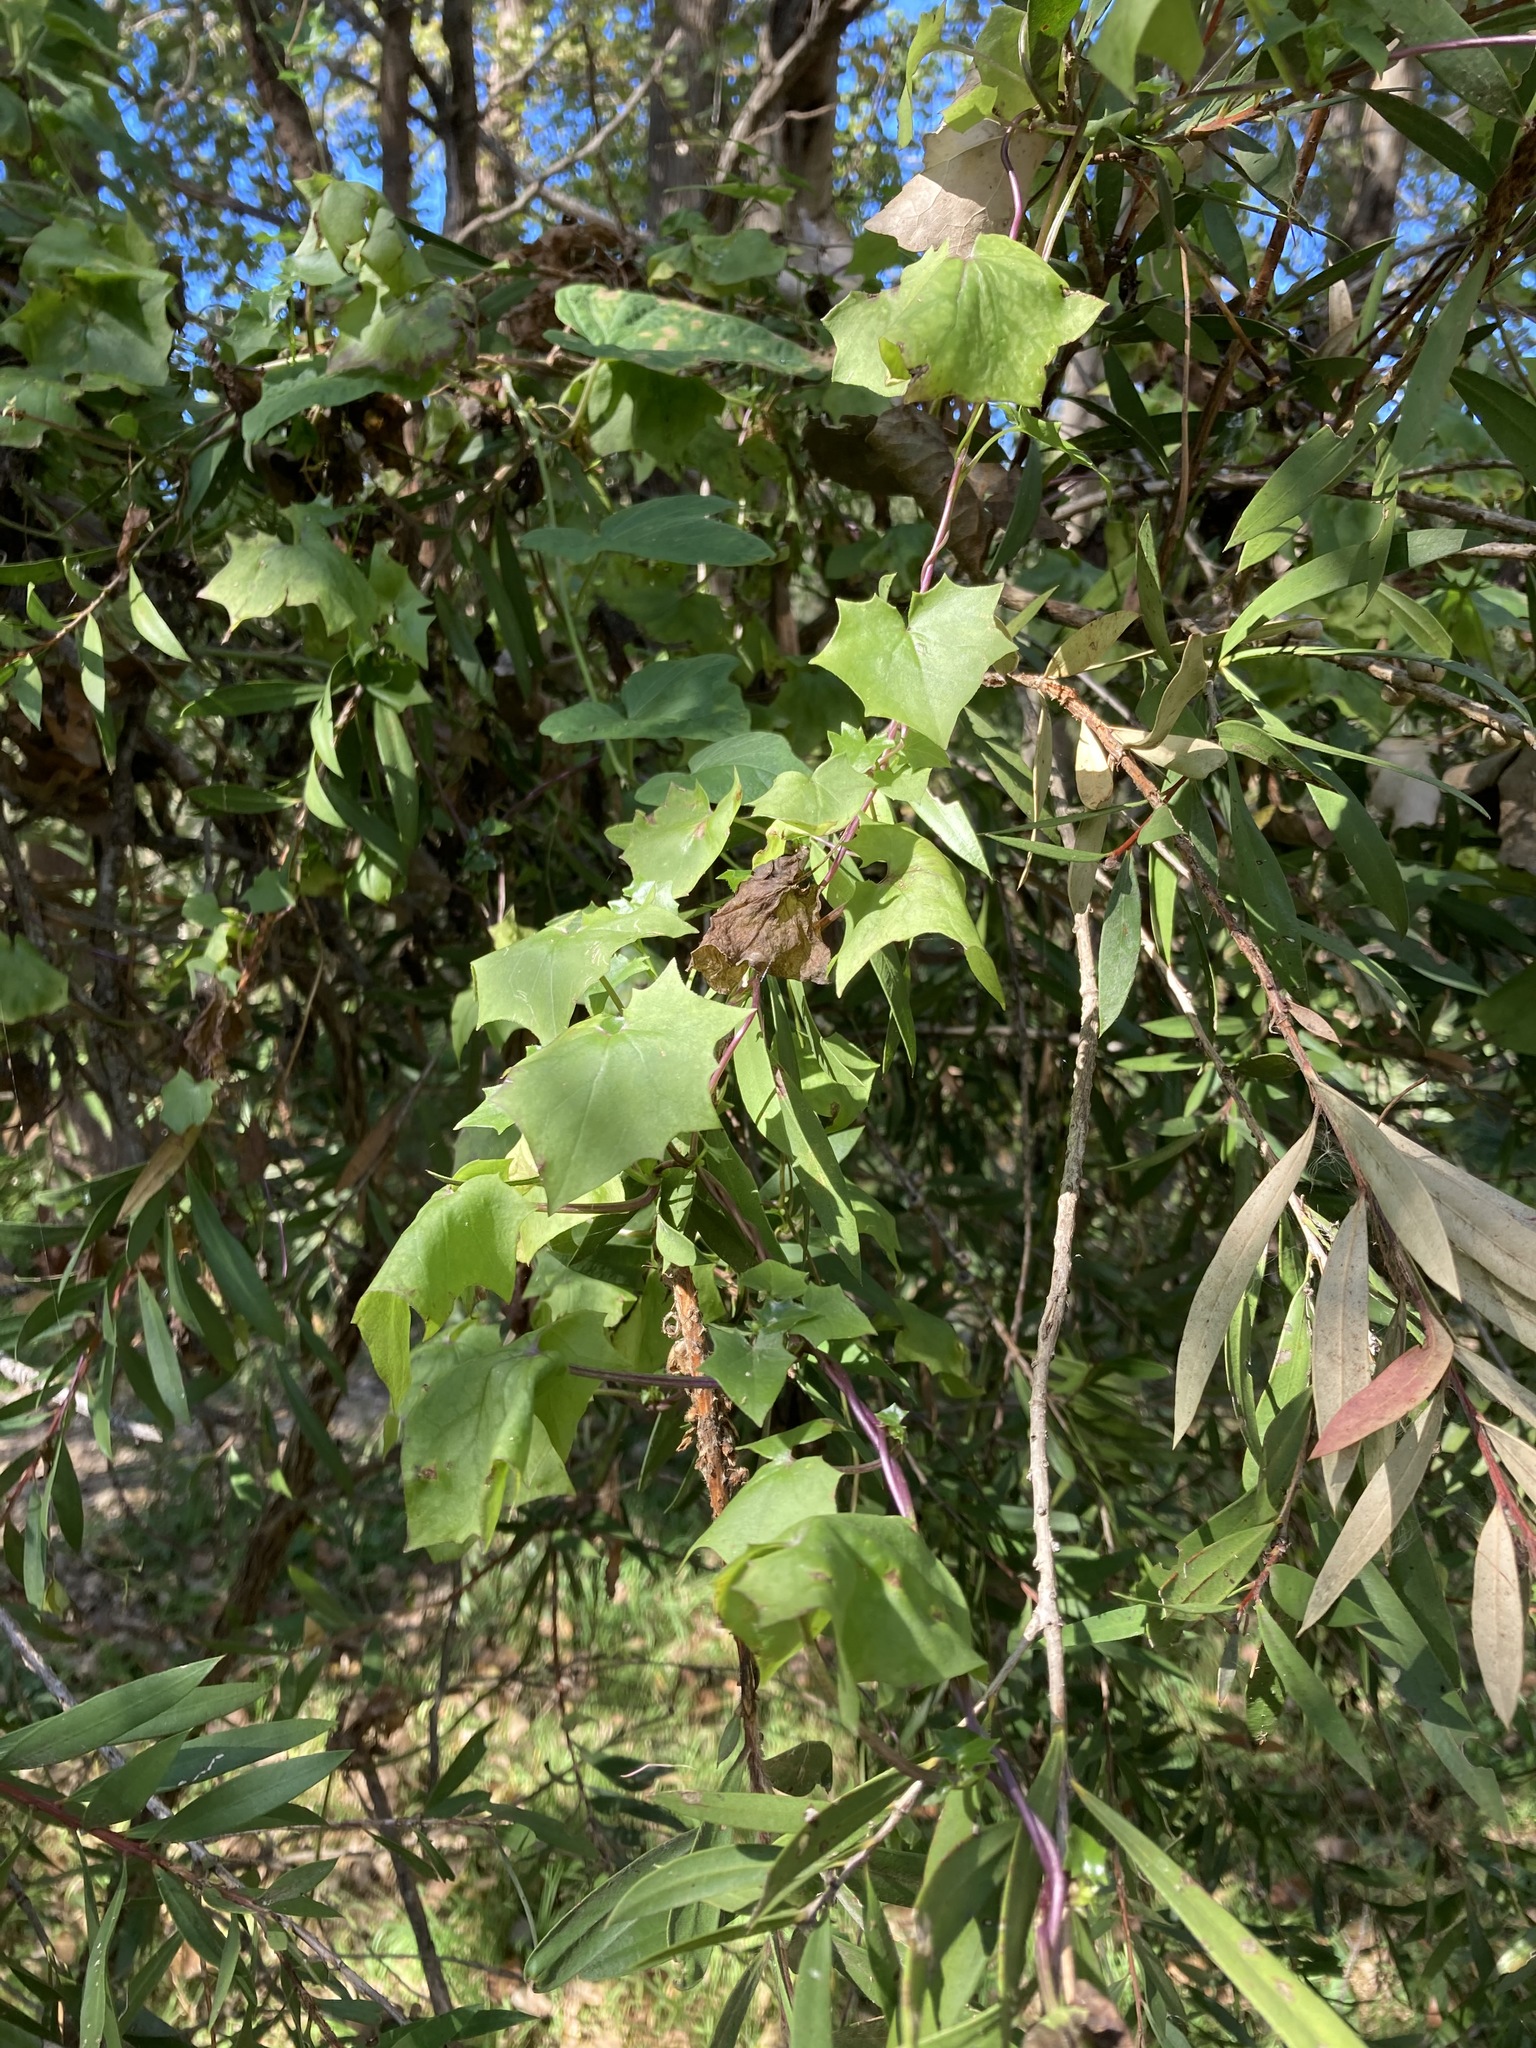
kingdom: Plantae
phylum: Tracheophyta
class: Magnoliopsida
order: Asterales
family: Asteraceae
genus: Delairea
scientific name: Delairea odorata
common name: Cape-ivy
